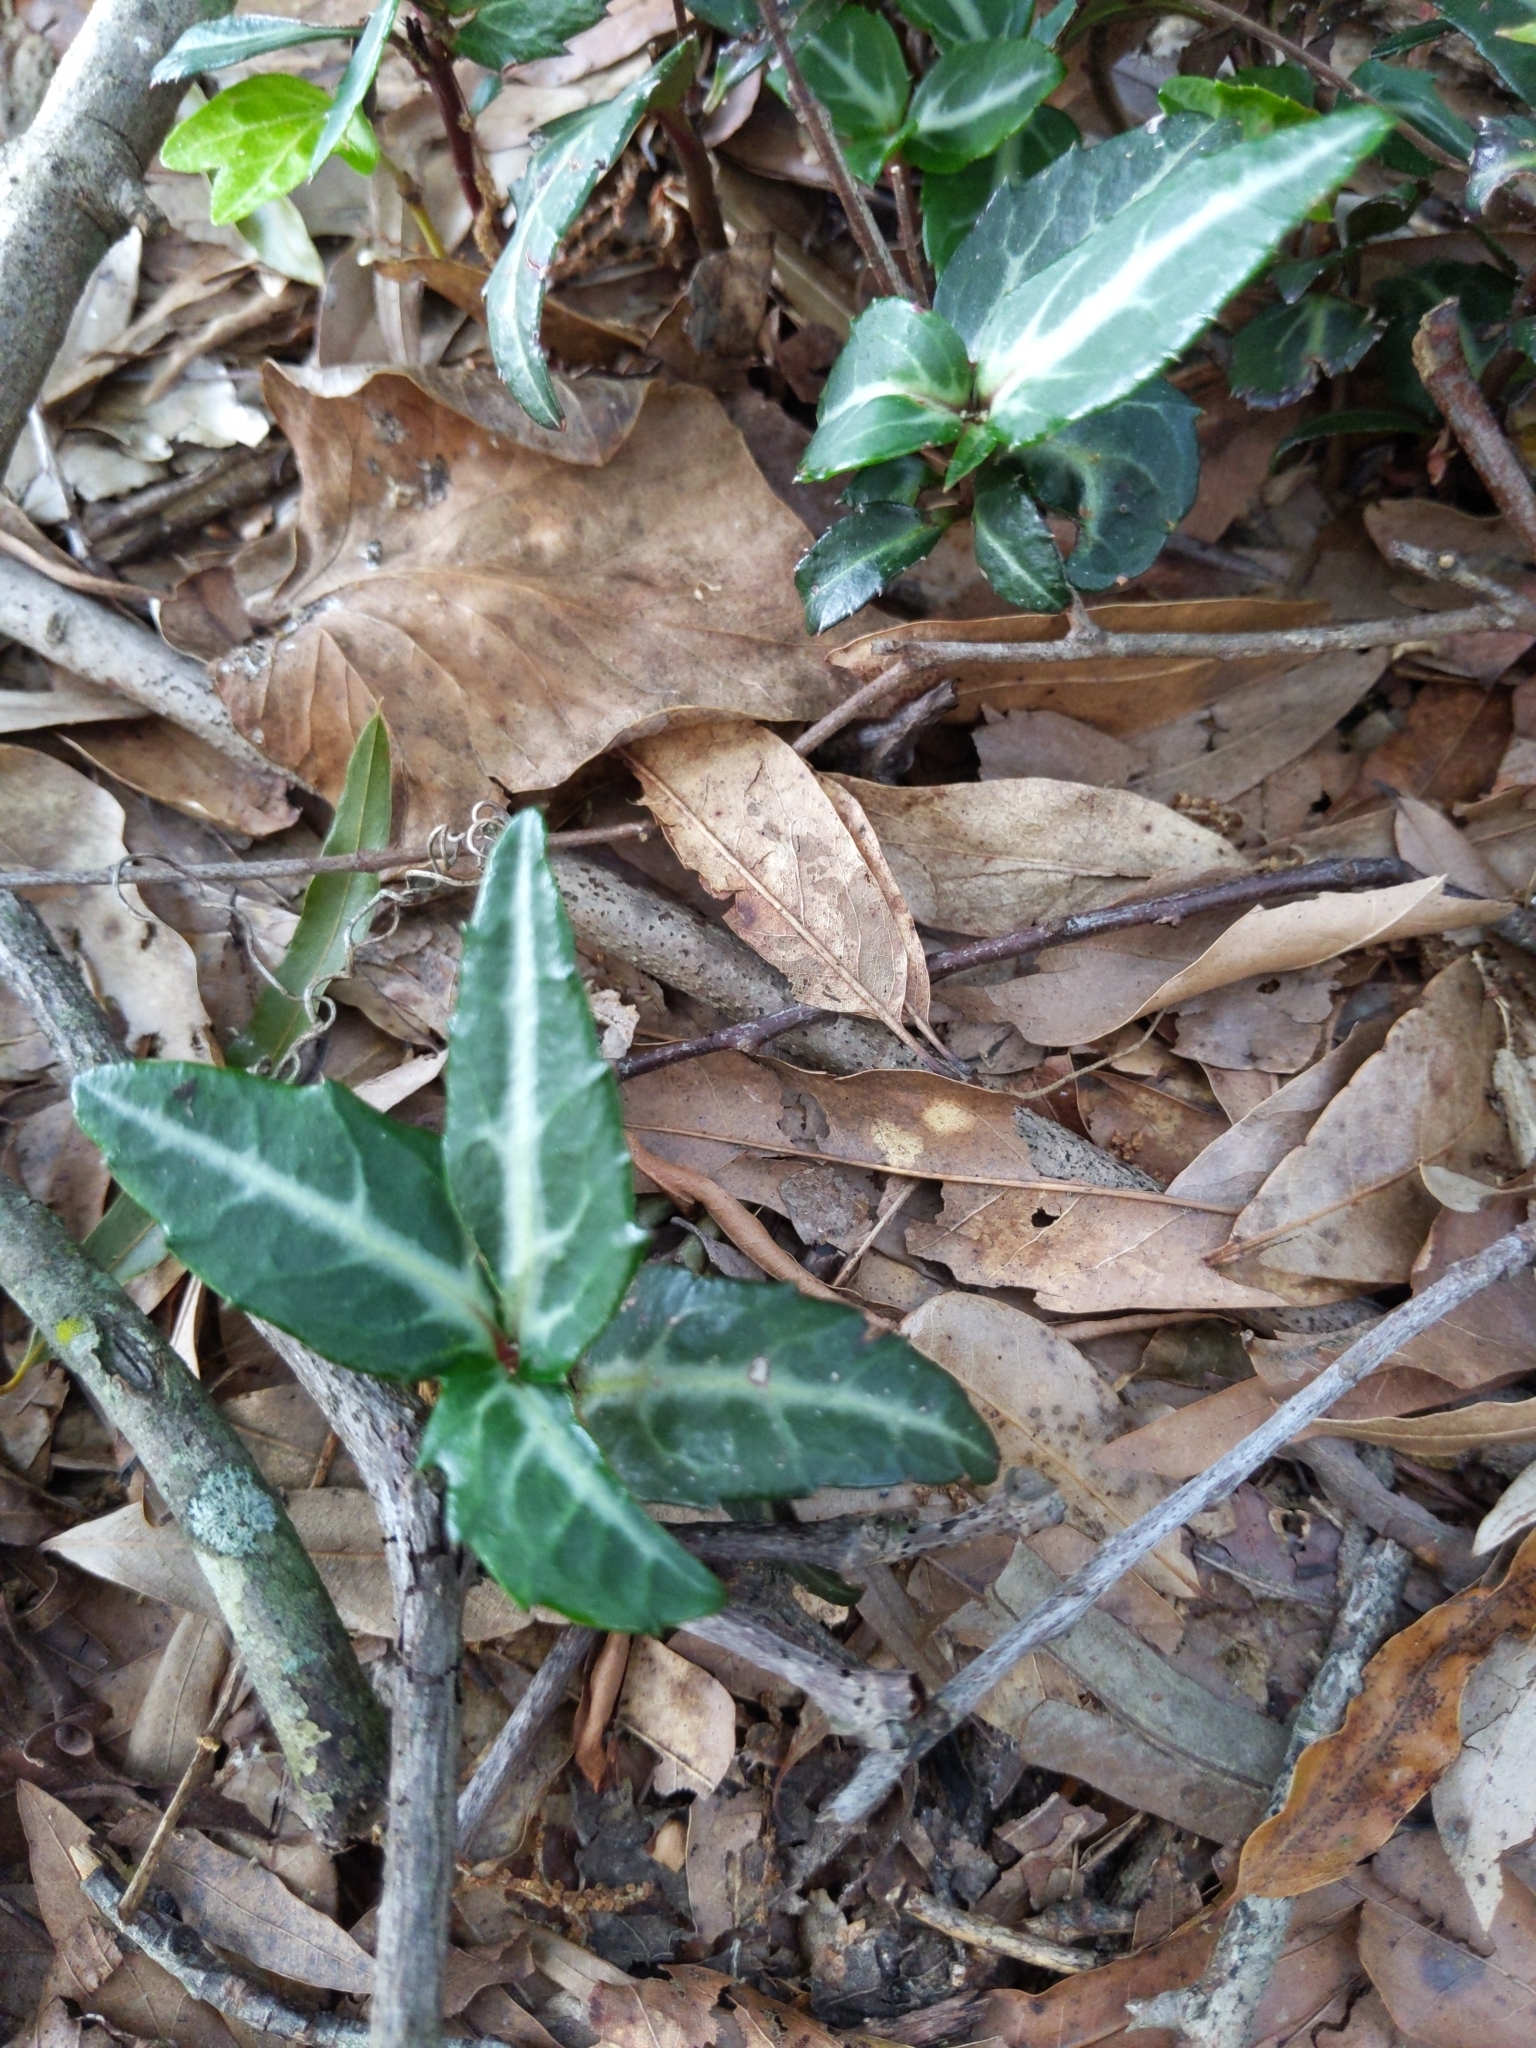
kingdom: Plantae
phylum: Tracheophyta
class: Magnoliopsida
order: Ericales
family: Ericaceae
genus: Chimaphila
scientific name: Chimaphila maculata
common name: Spotted pipsissewa
